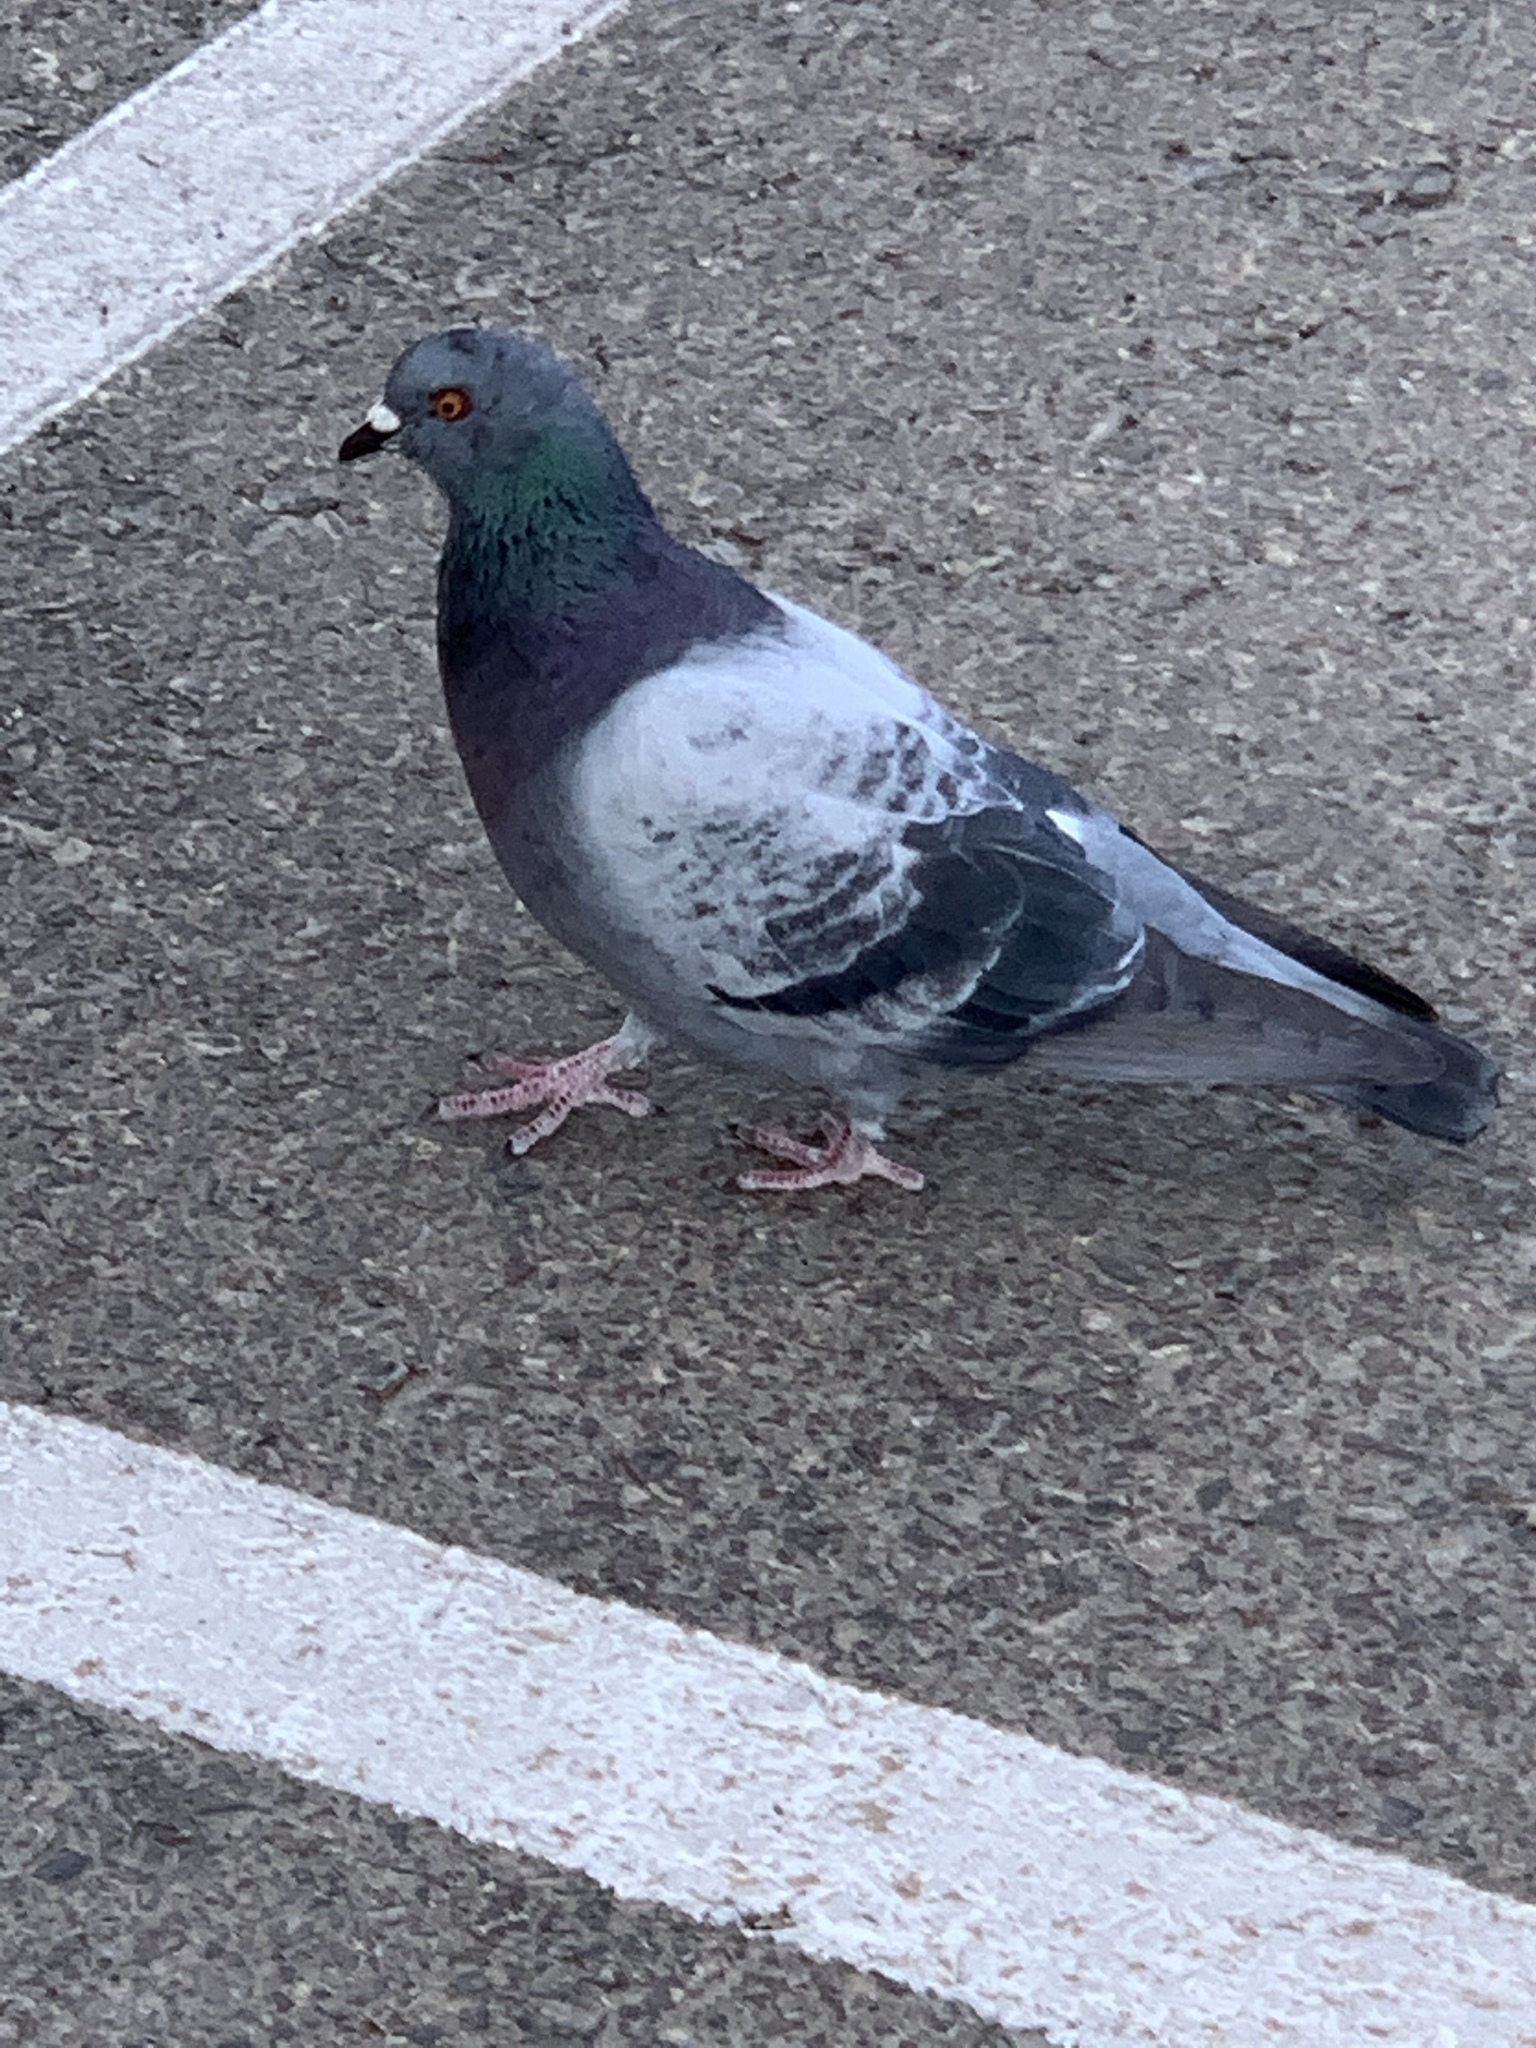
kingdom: Animalia
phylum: Chordata
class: Aves
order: Columbiformes
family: Columbidae
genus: Columba
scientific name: Columba livia
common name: Rock pigeon
